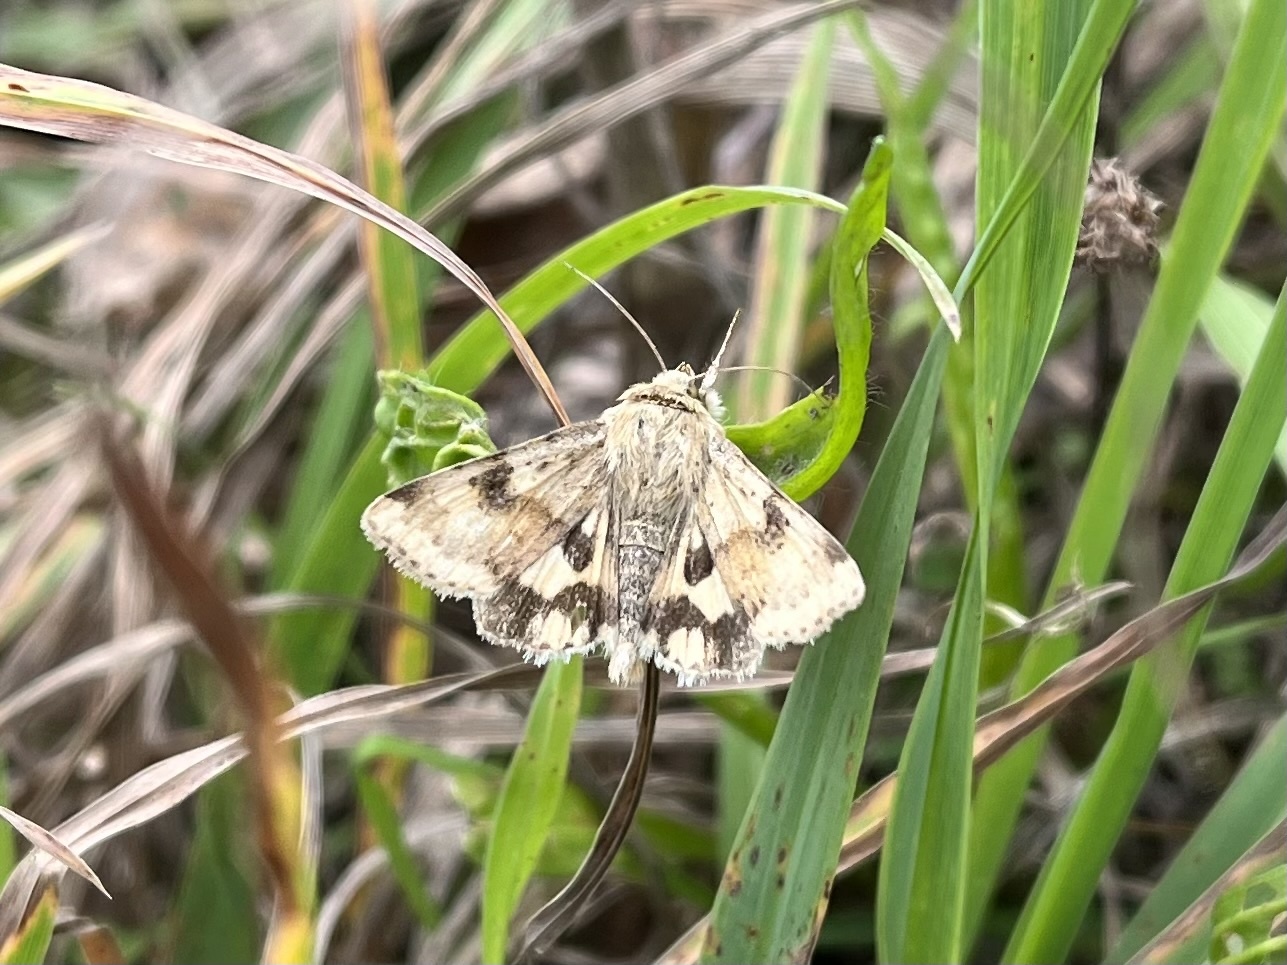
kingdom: Animalia
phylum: Arthropoda
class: Insecta
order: Lepidoptera
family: Noctuidae
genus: Heliothis
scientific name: Heliothis viriplaca
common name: Marbled clover
